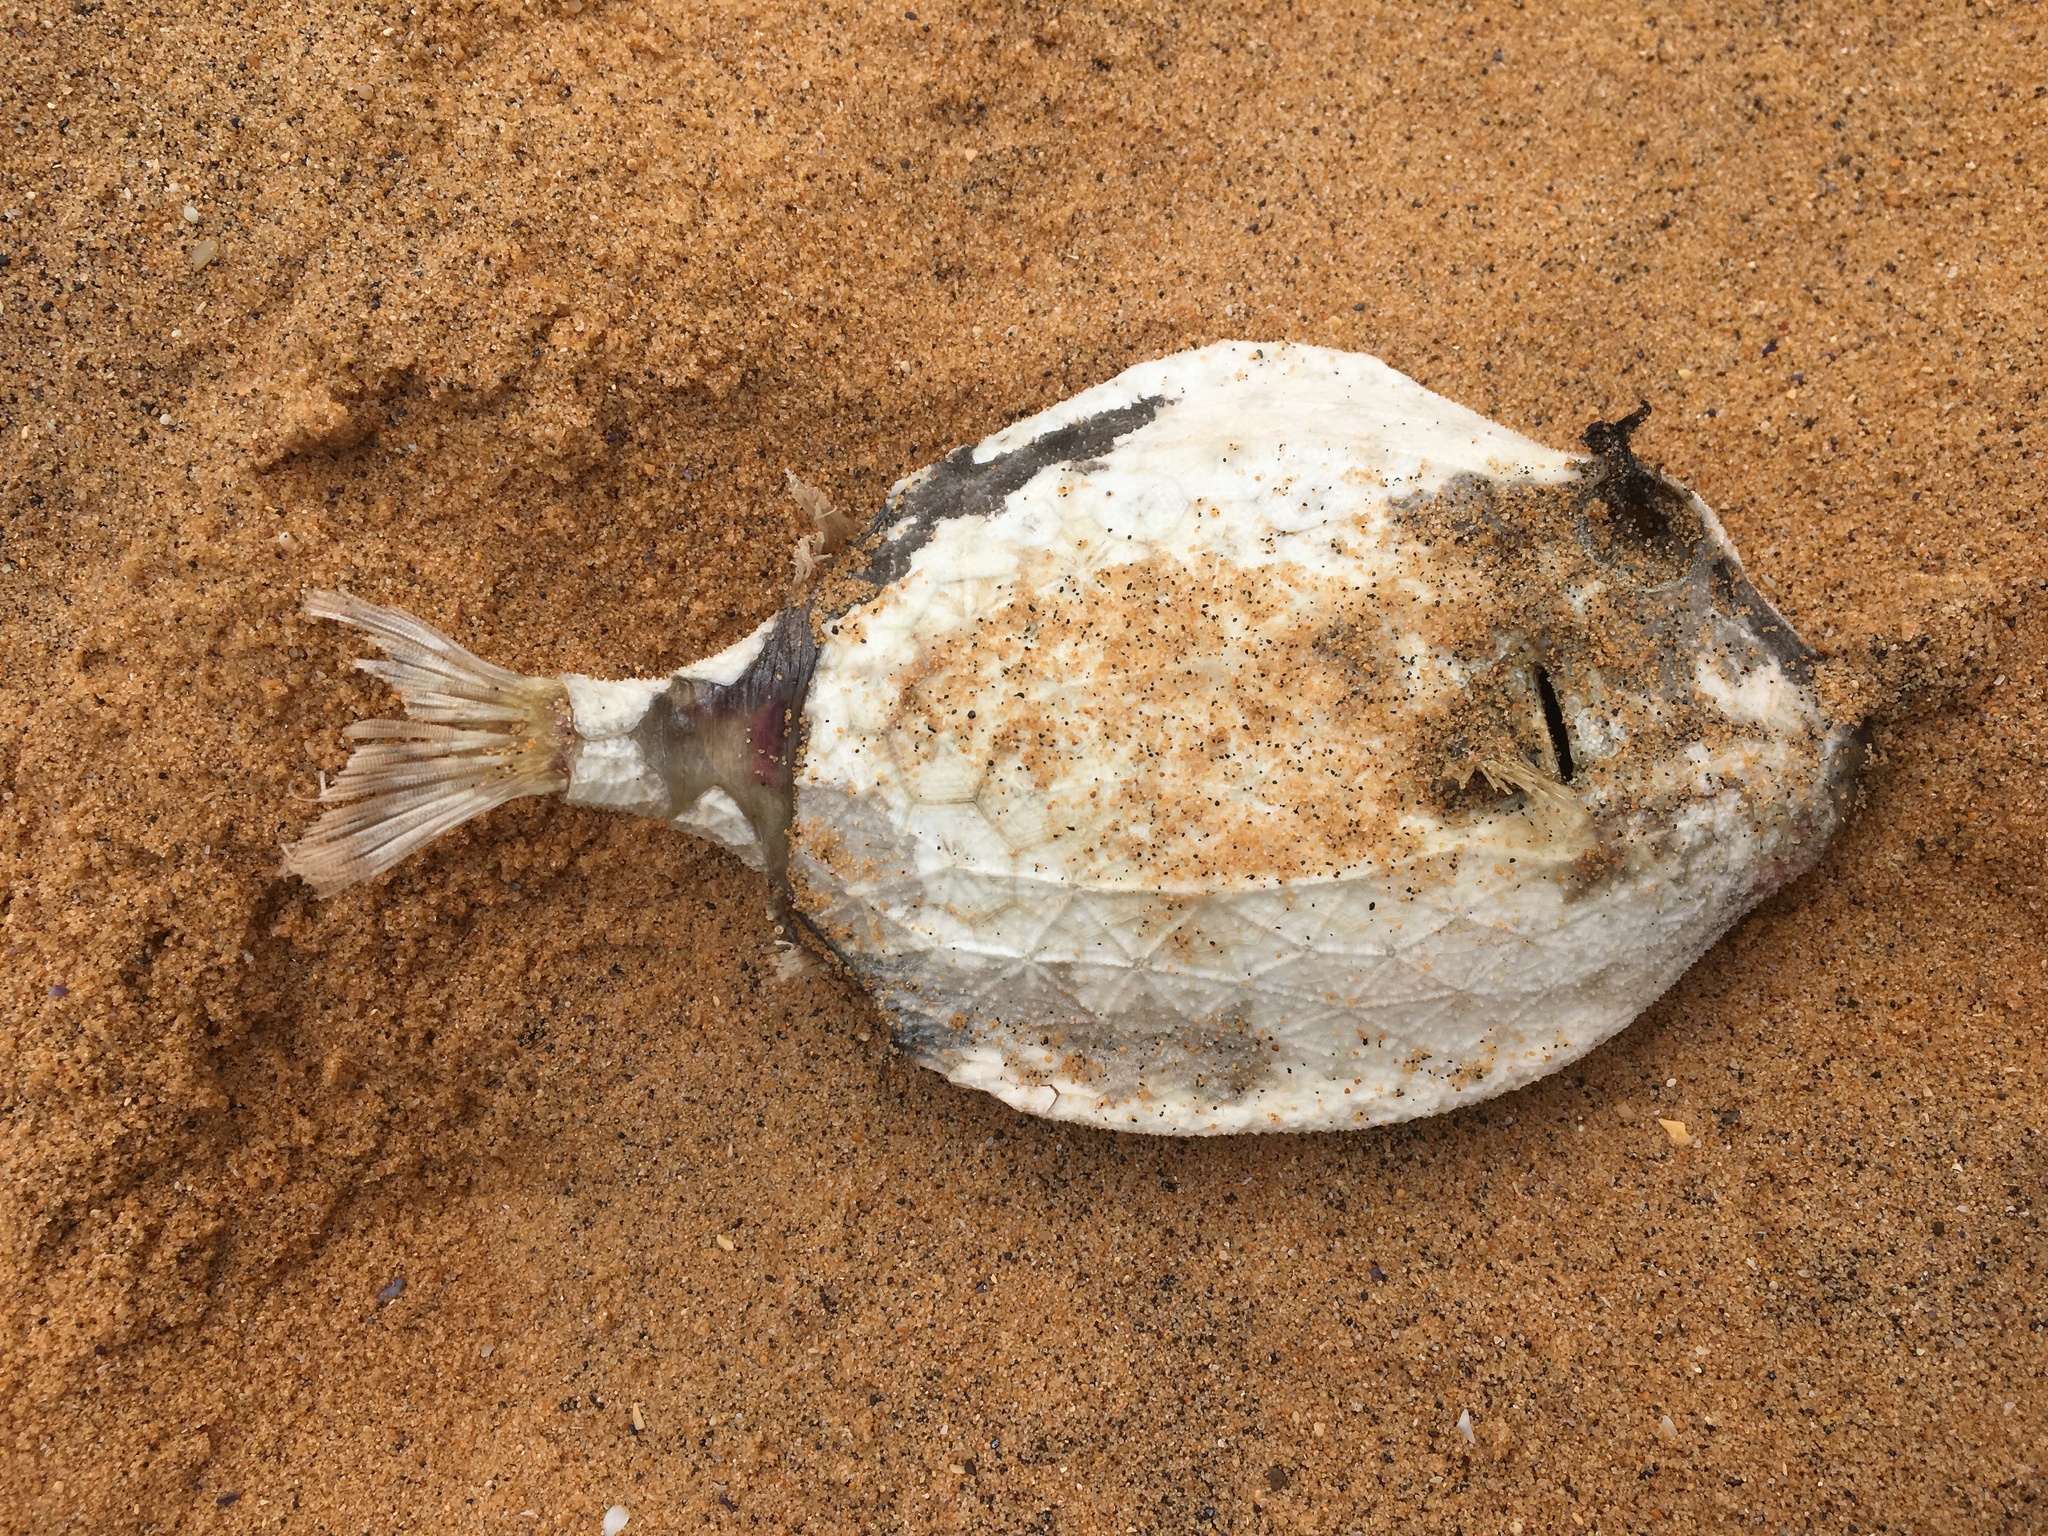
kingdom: Animalia
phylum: Chordata
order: Tetraodontiformes
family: Aracanidae
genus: Anoplocapros
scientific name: Anoplocapros inermis
